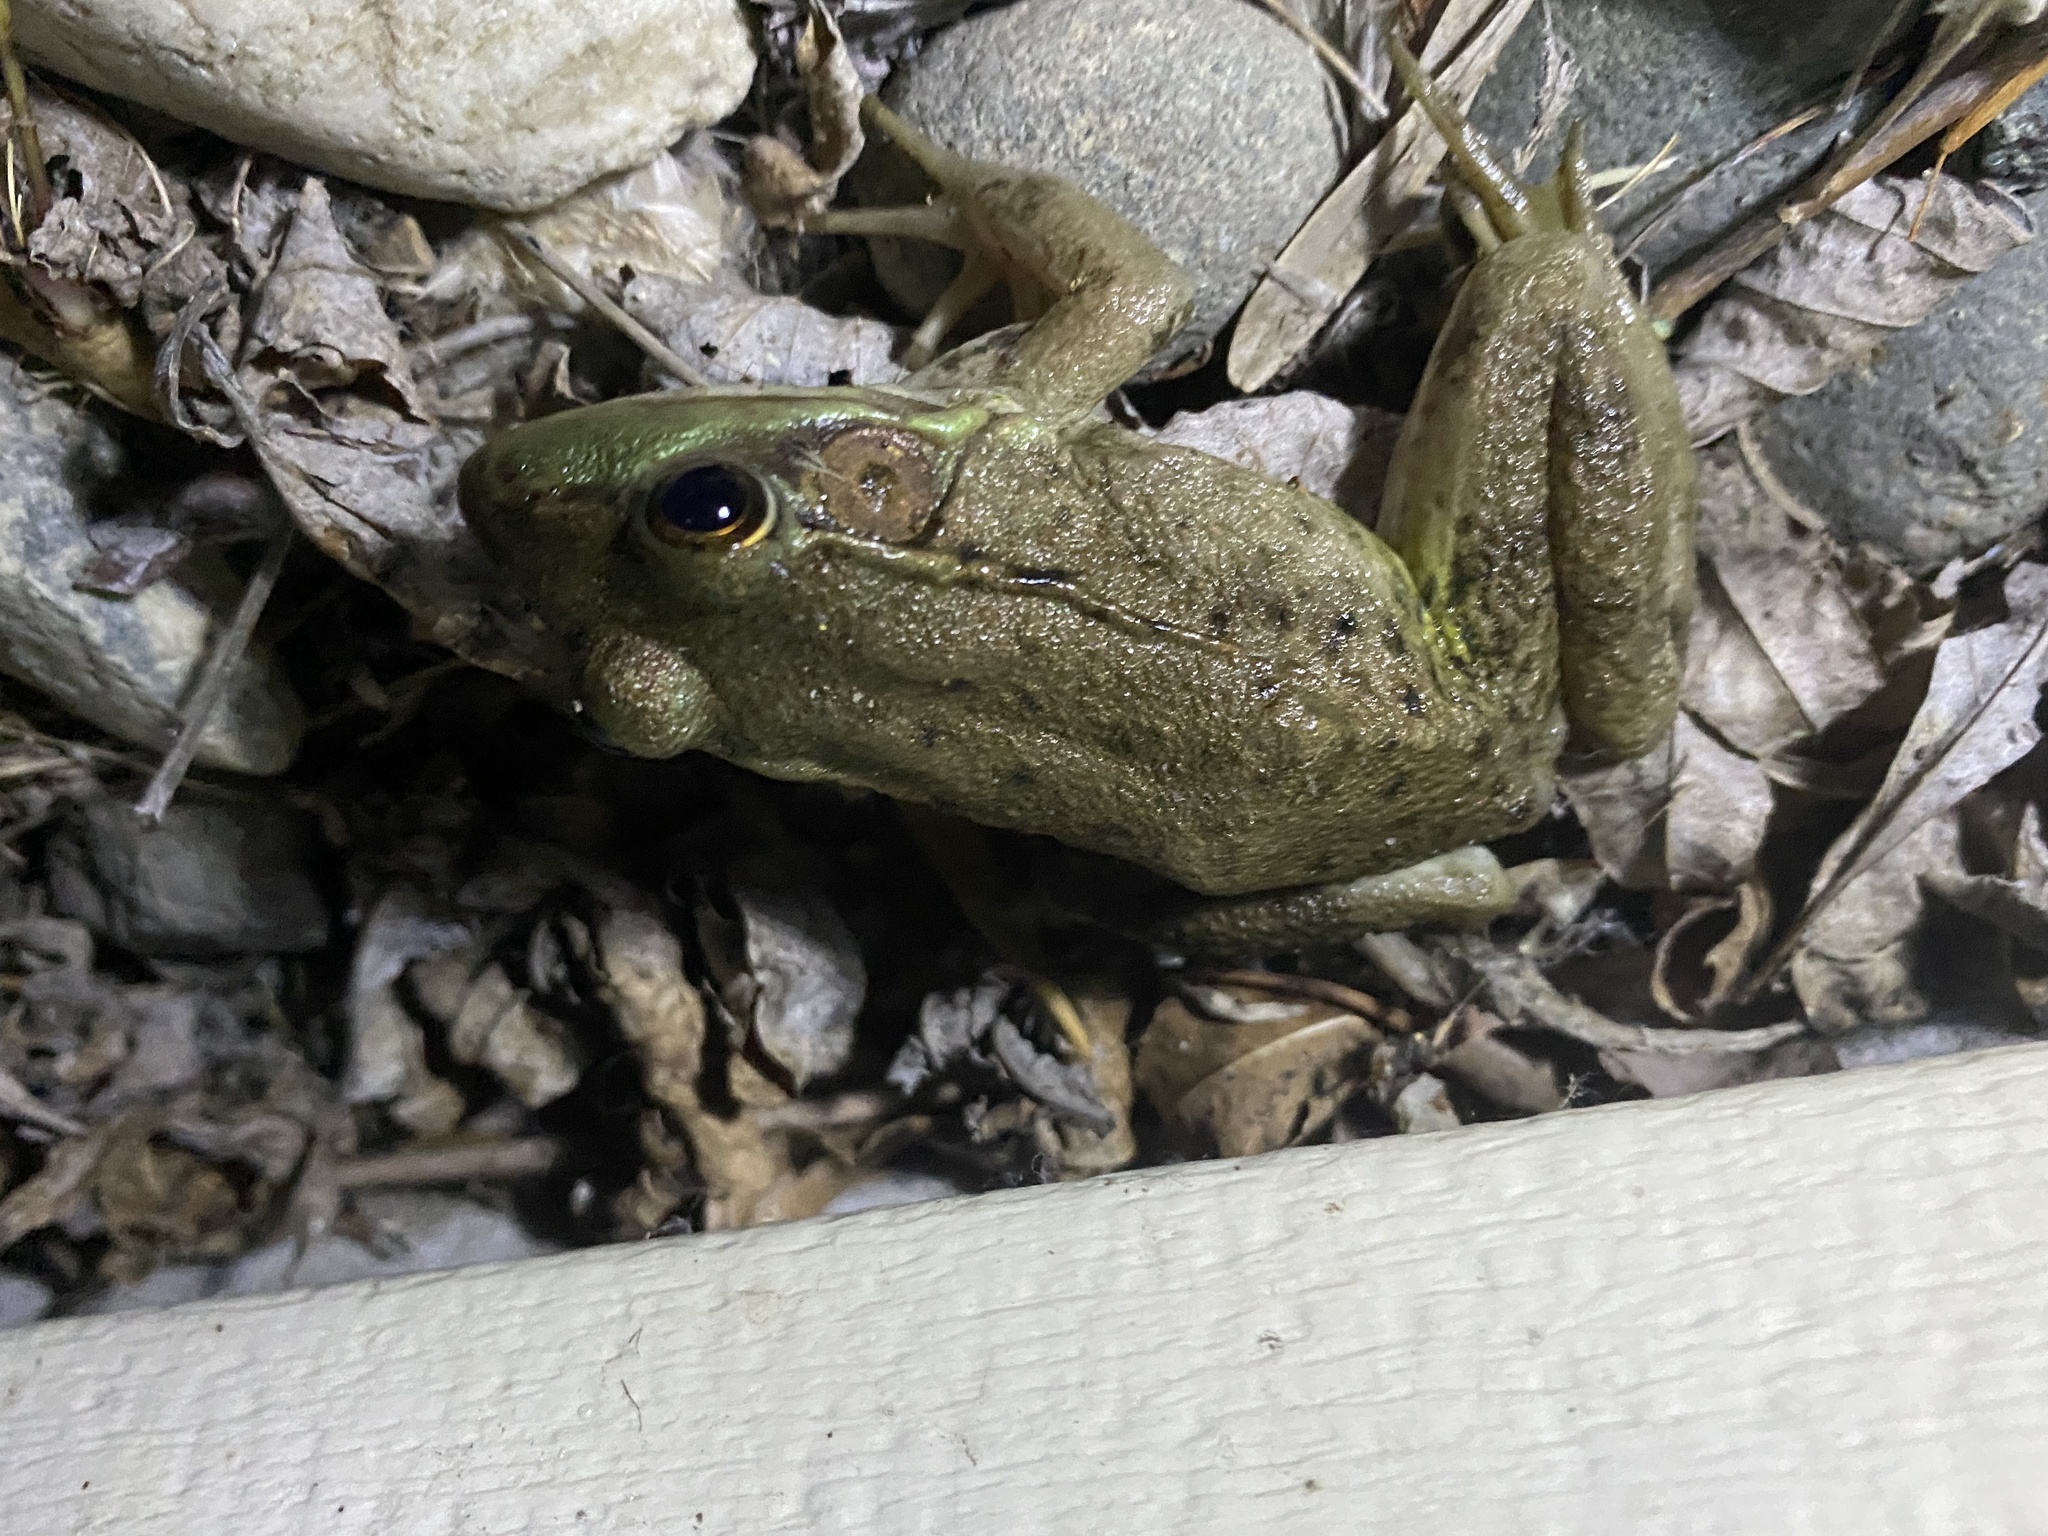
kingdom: Animalia
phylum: Chordata
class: Amphibia
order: Anura
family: Ranidae
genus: Lithobates
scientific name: Lithobates clamitans
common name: Green frog
